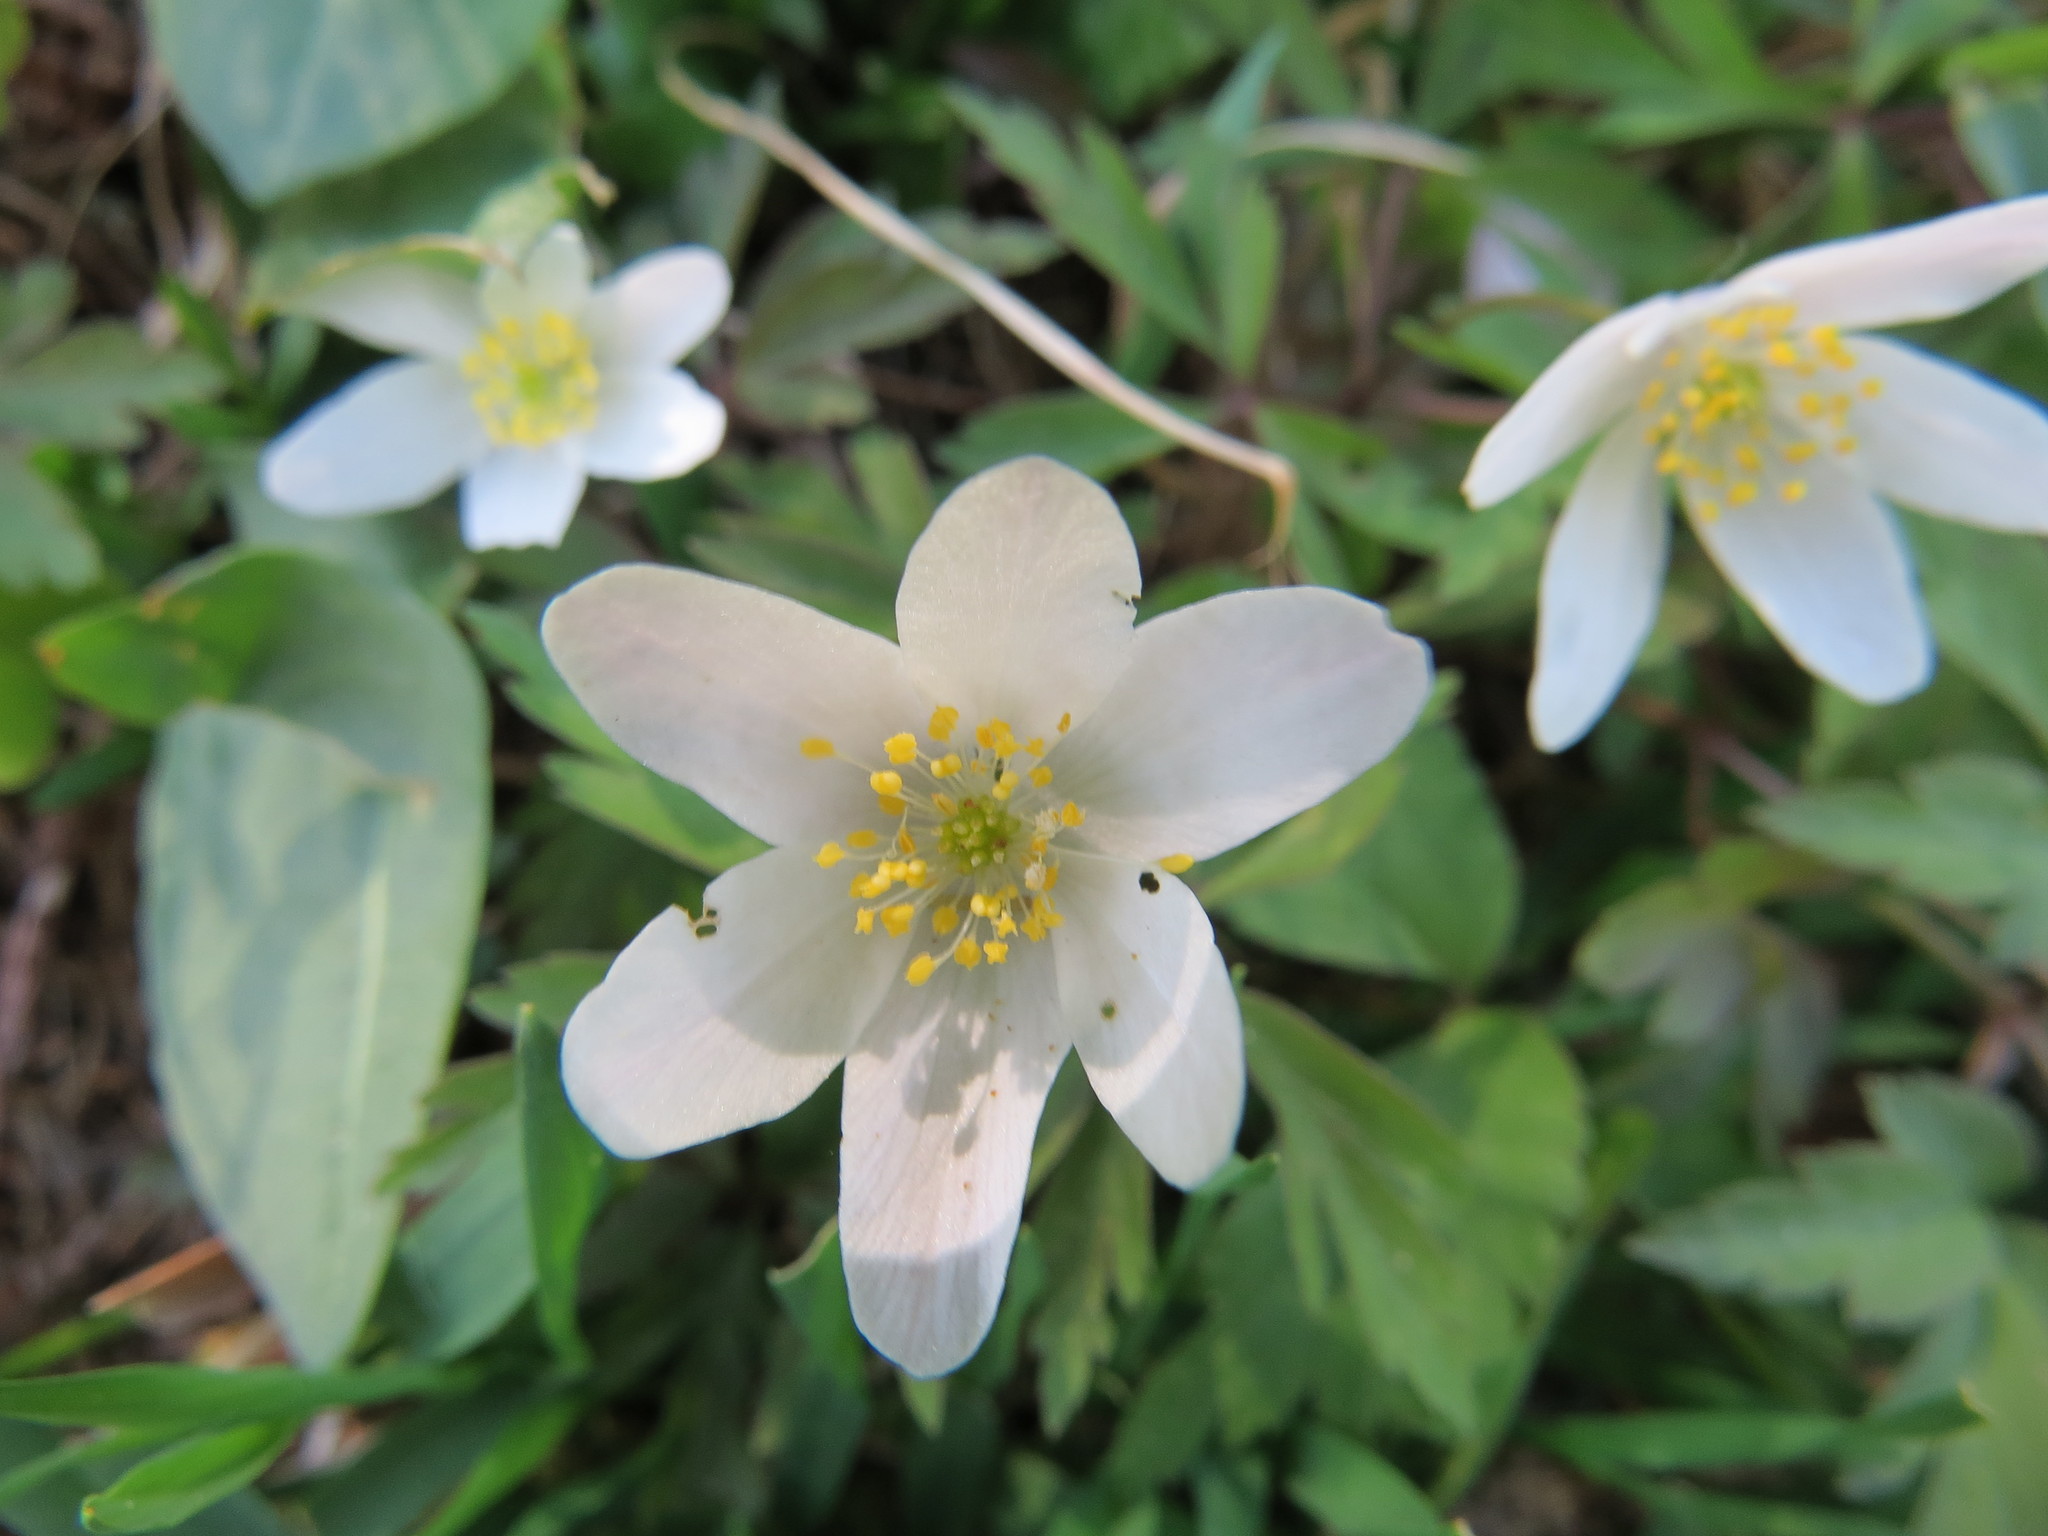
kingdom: Plantae
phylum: Tracheophyta
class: Magnoliopsida
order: Ranunculales
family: Ranunculaceae
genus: Anemone
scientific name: Anemone nemorosa
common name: Wood anemone
